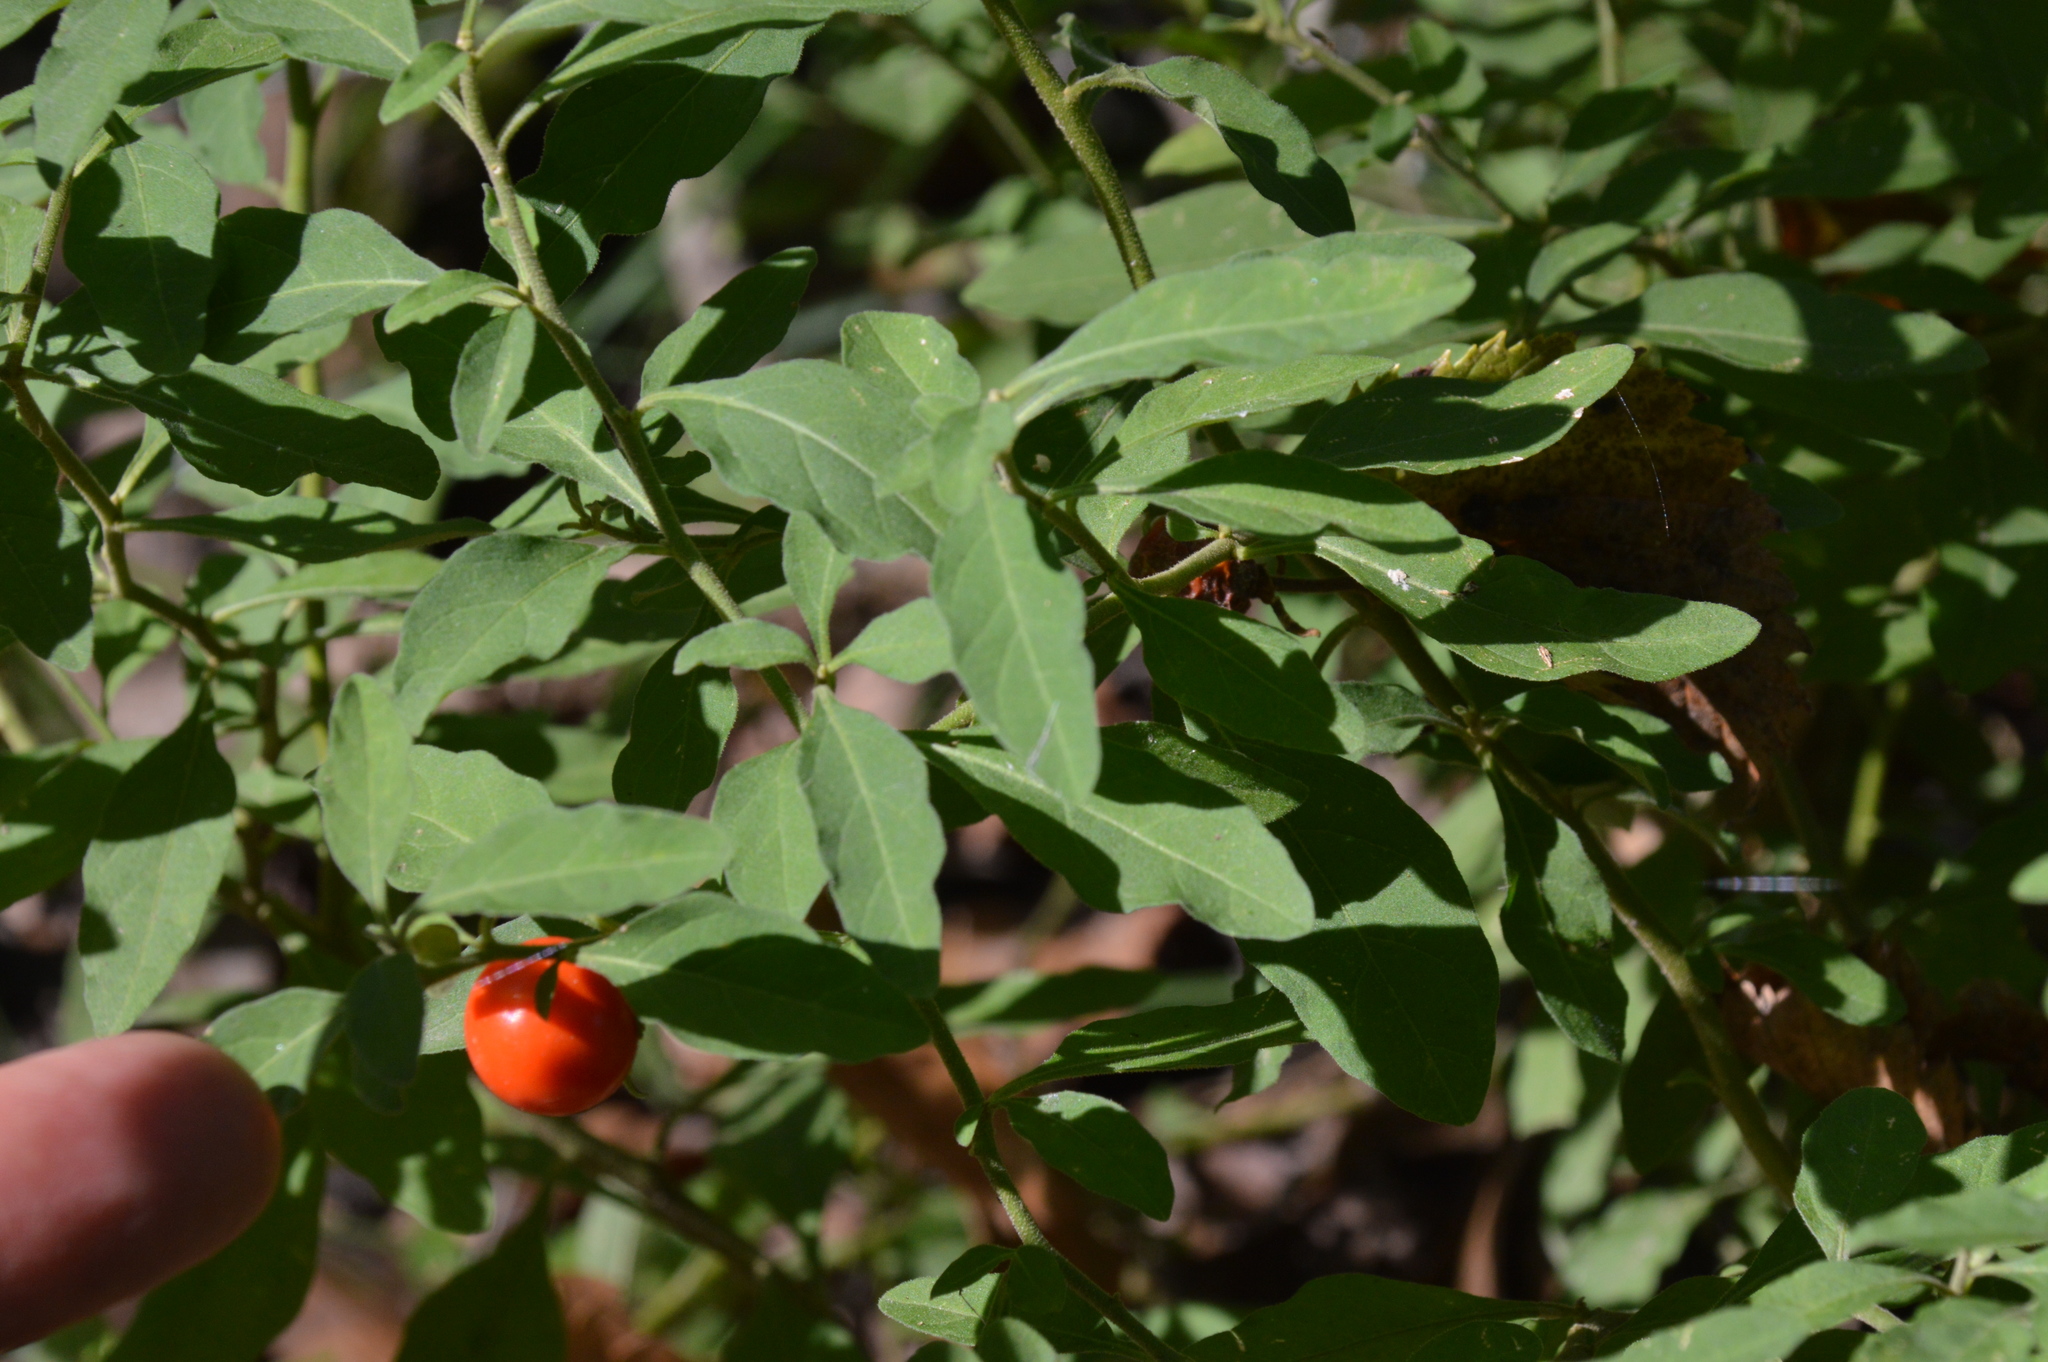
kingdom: Plantae
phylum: Tracheophyta
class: Magnoliopsida
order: Solanales
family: Solanaceae
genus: Solanum
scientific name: Solanum pseudocapsicum
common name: Jerusalem cherry
